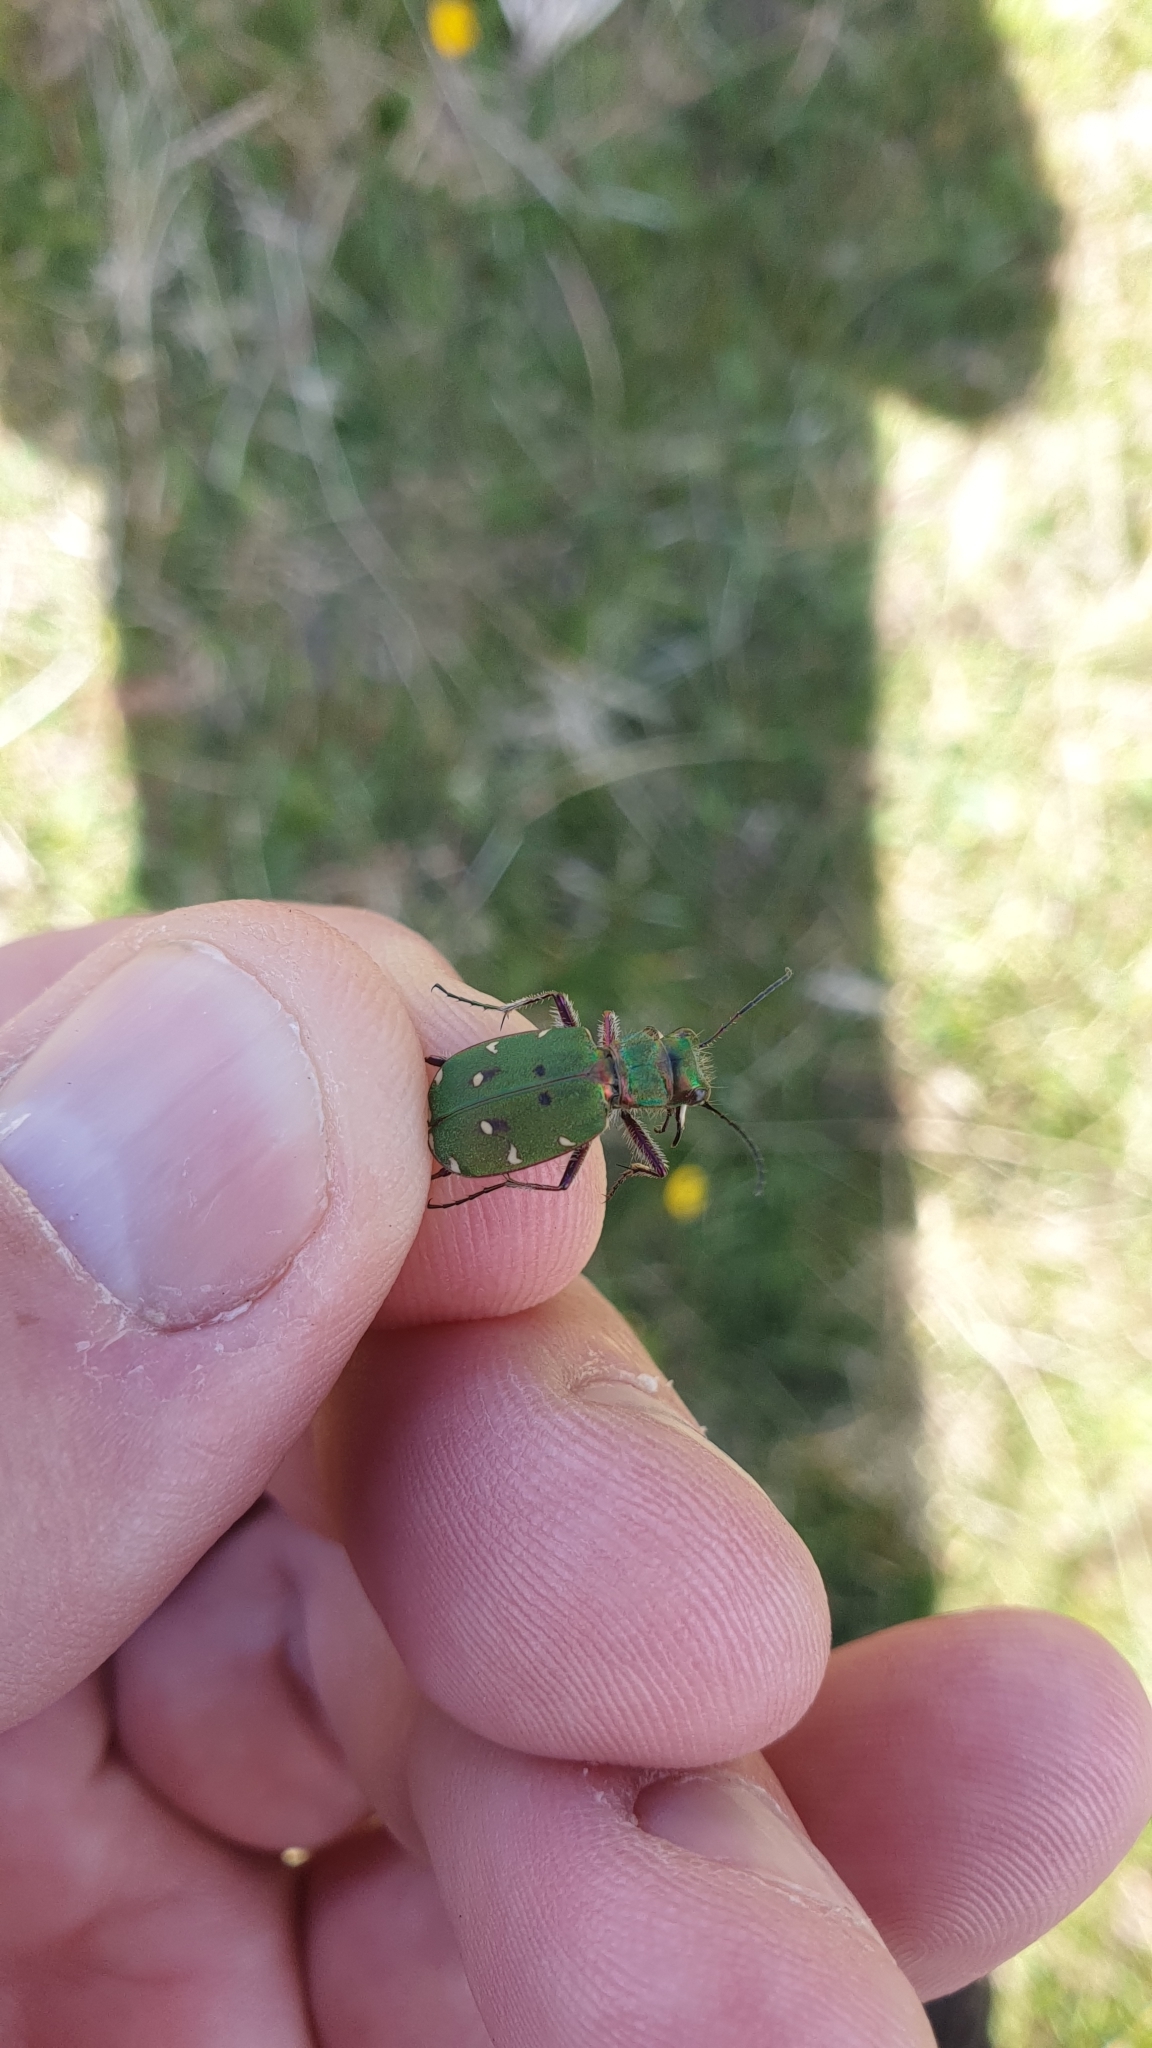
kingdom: Animalia
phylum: Arthropoda
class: Insecta
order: Coleoptera
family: Carabidae
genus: Cicindela
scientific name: Cicindela campestris
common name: Common tiger beetle
